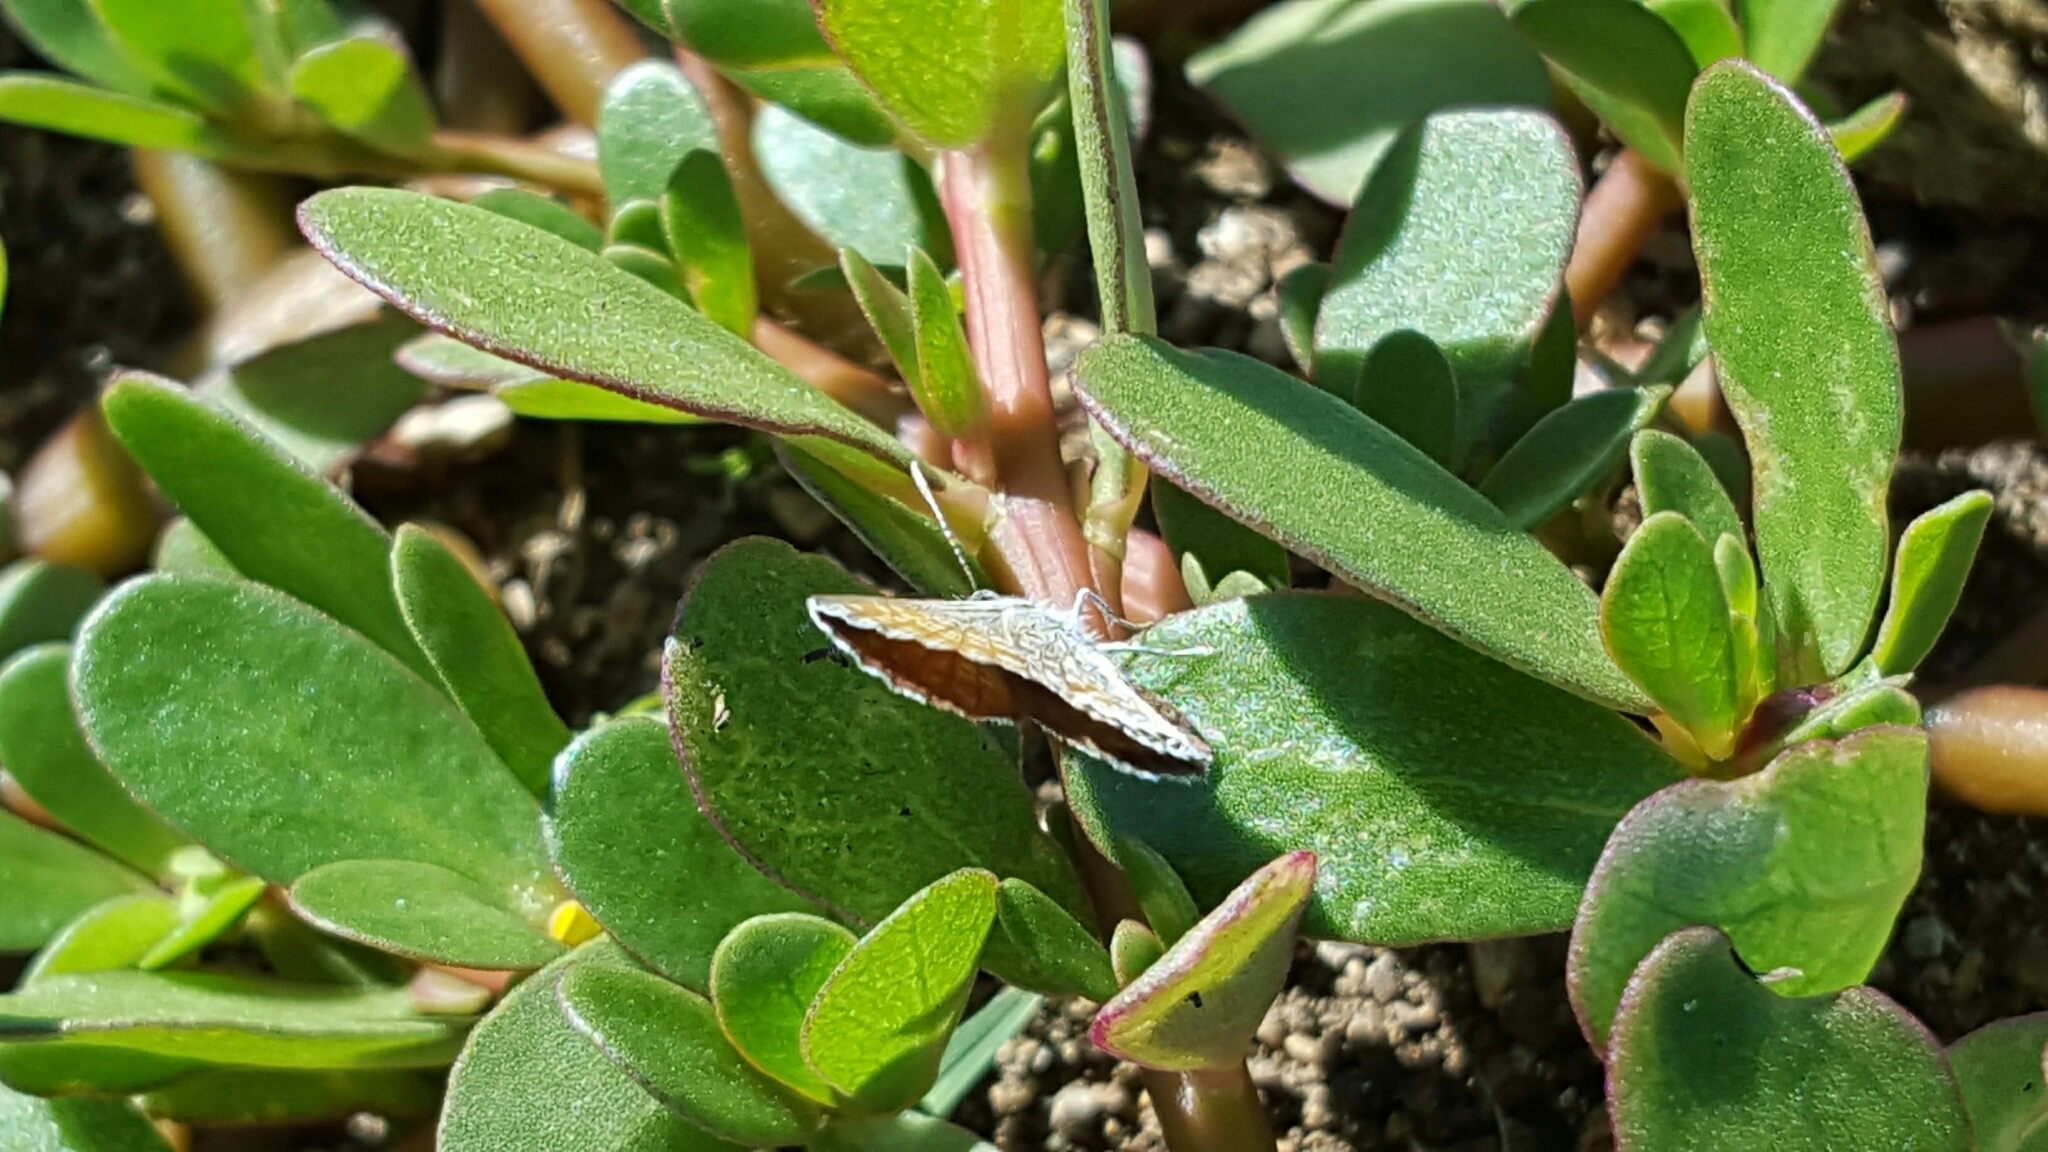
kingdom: Animalia
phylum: Arthropoda
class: Insecta
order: Lepidoptera
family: Lycaenidae
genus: Brephidium
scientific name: Brephidium exilis
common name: Pygmy blue
